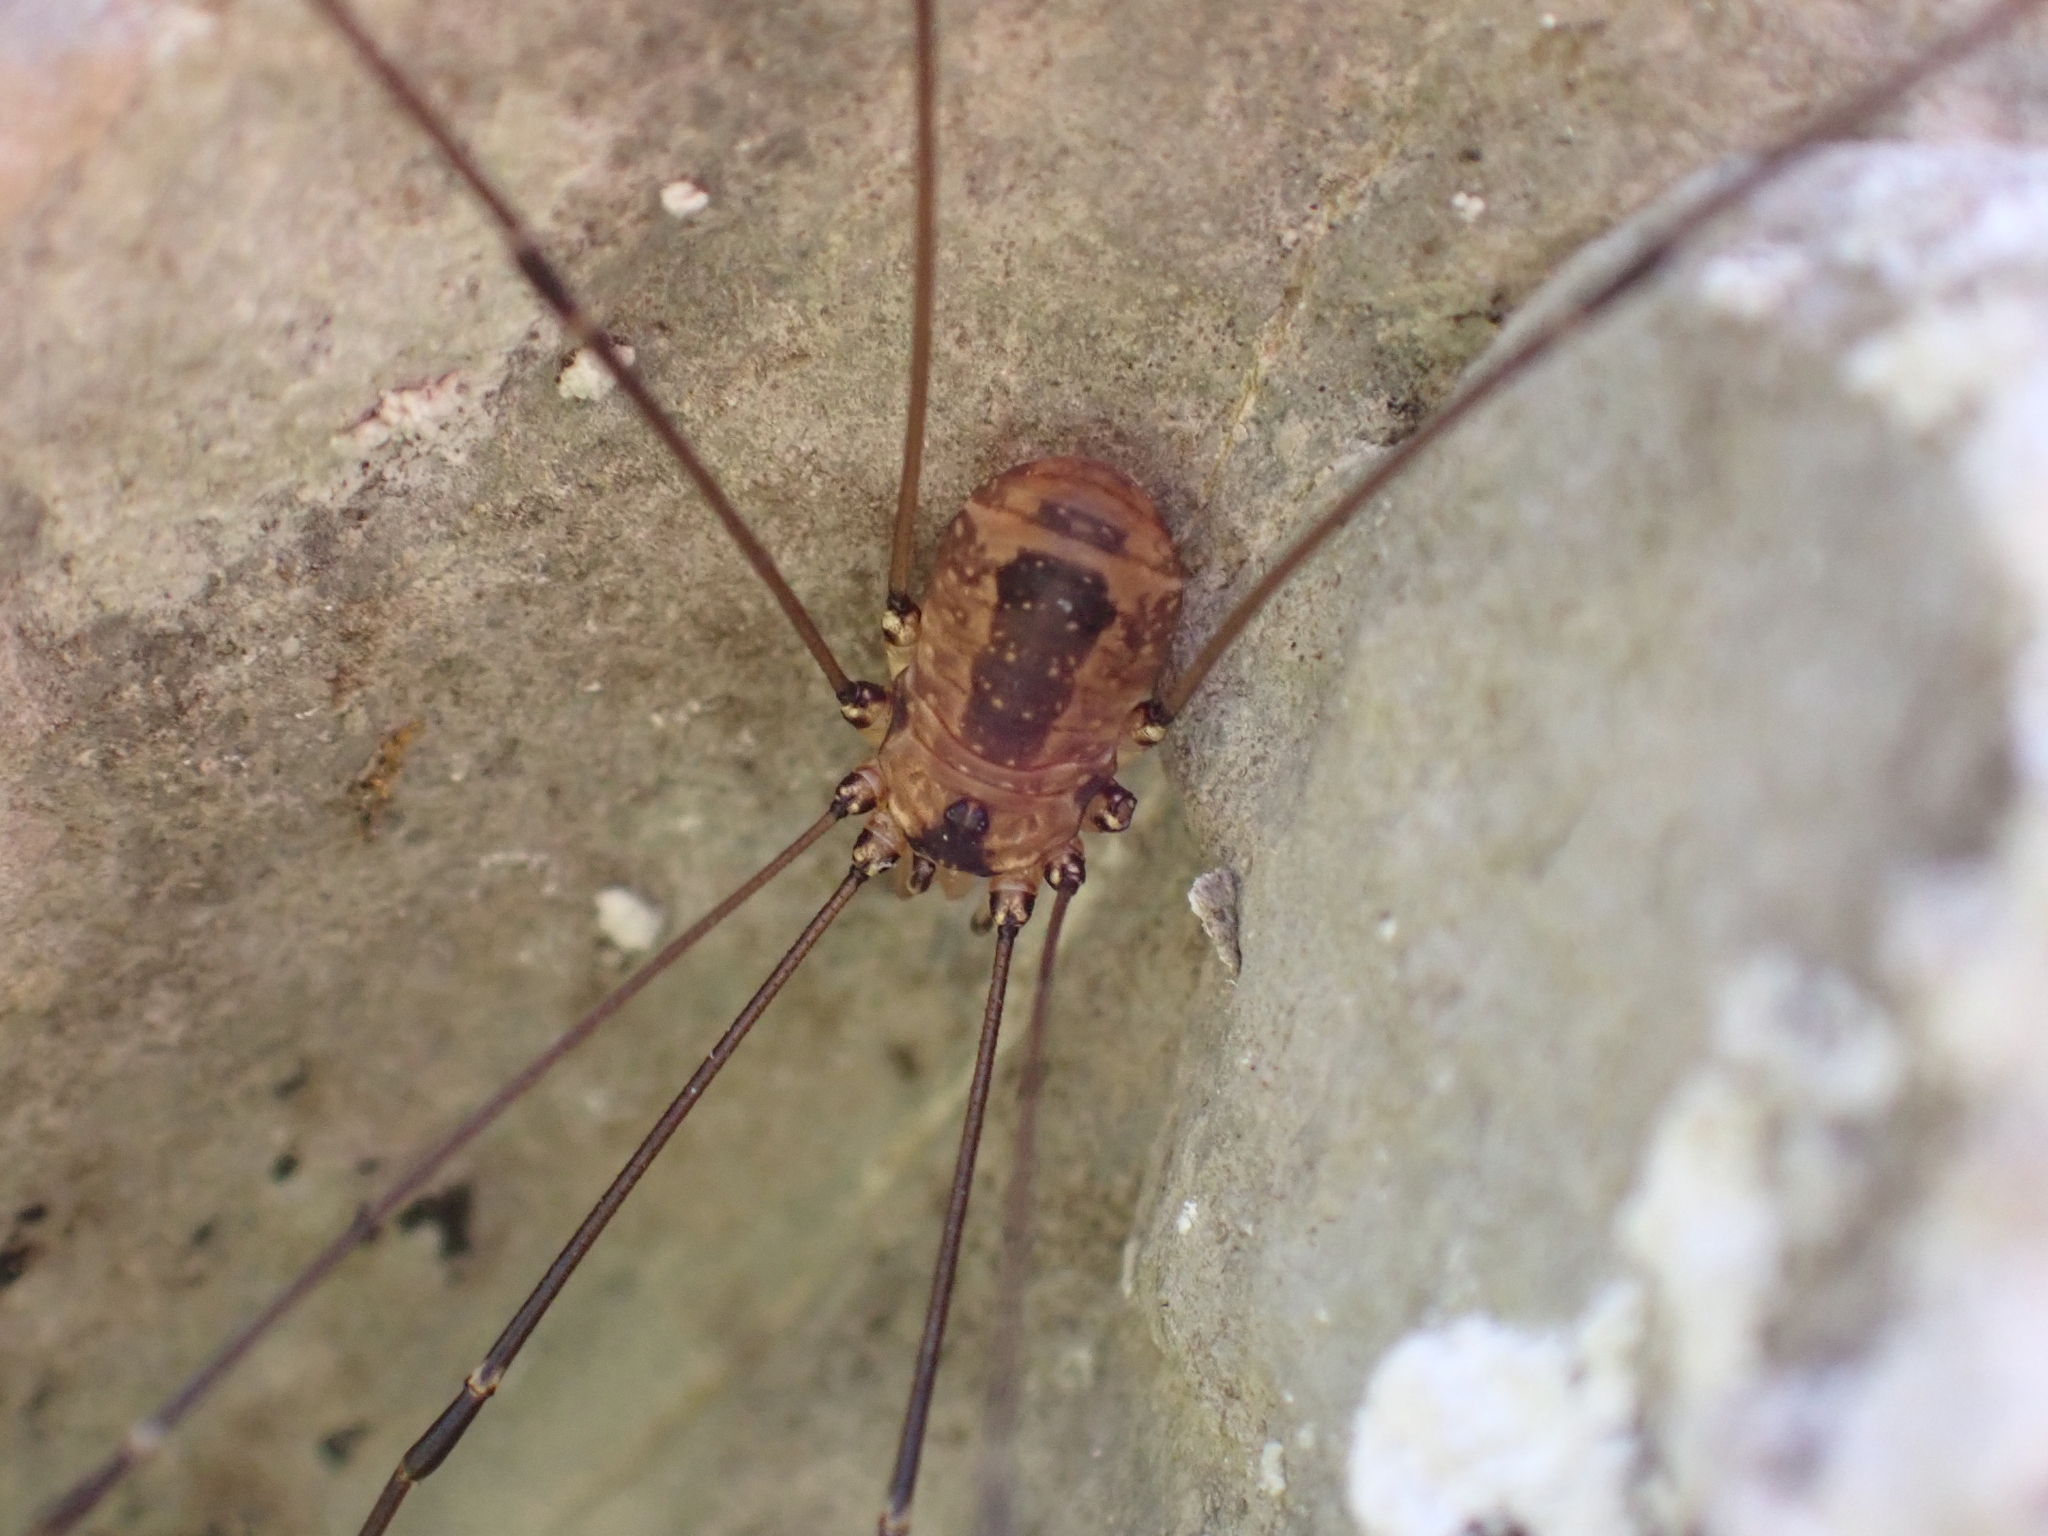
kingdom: Animalia
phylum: Arthropoda
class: Arachnida
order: Opiliones
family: Sclerosomatidae
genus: Leiobunum
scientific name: Leiobunum rotundum
